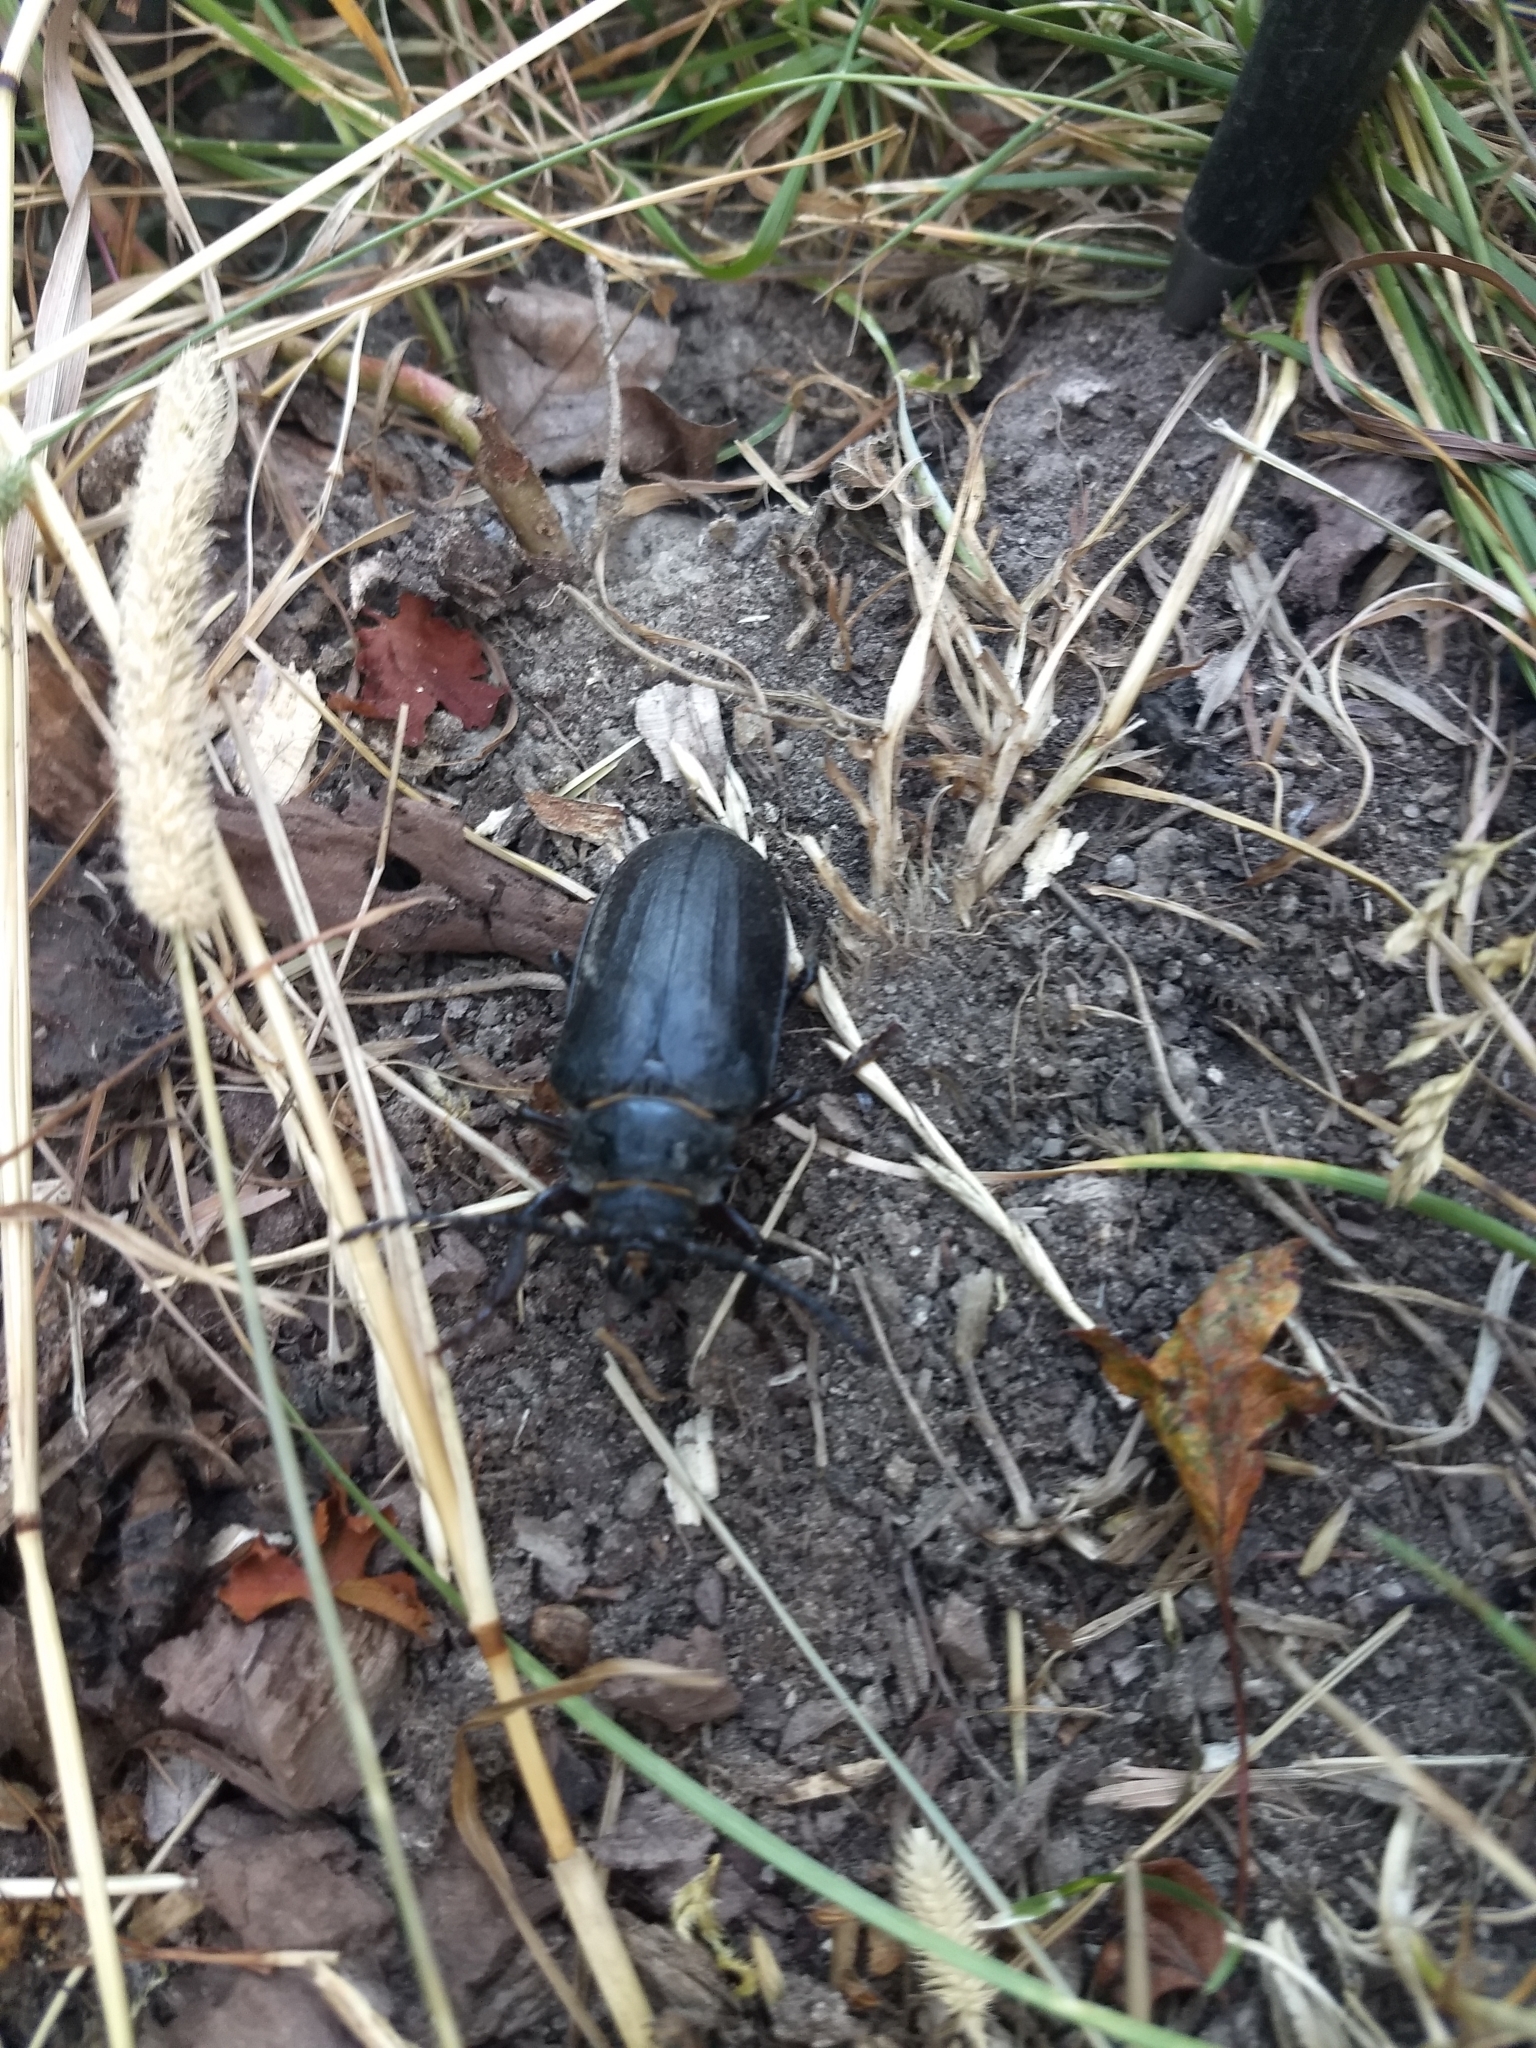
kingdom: Animalia
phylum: Arthropoda
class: Insecta
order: Coleoptera
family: Cerambycidae
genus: Prionus
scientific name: Prionus coriarius
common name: Tanner beetle
